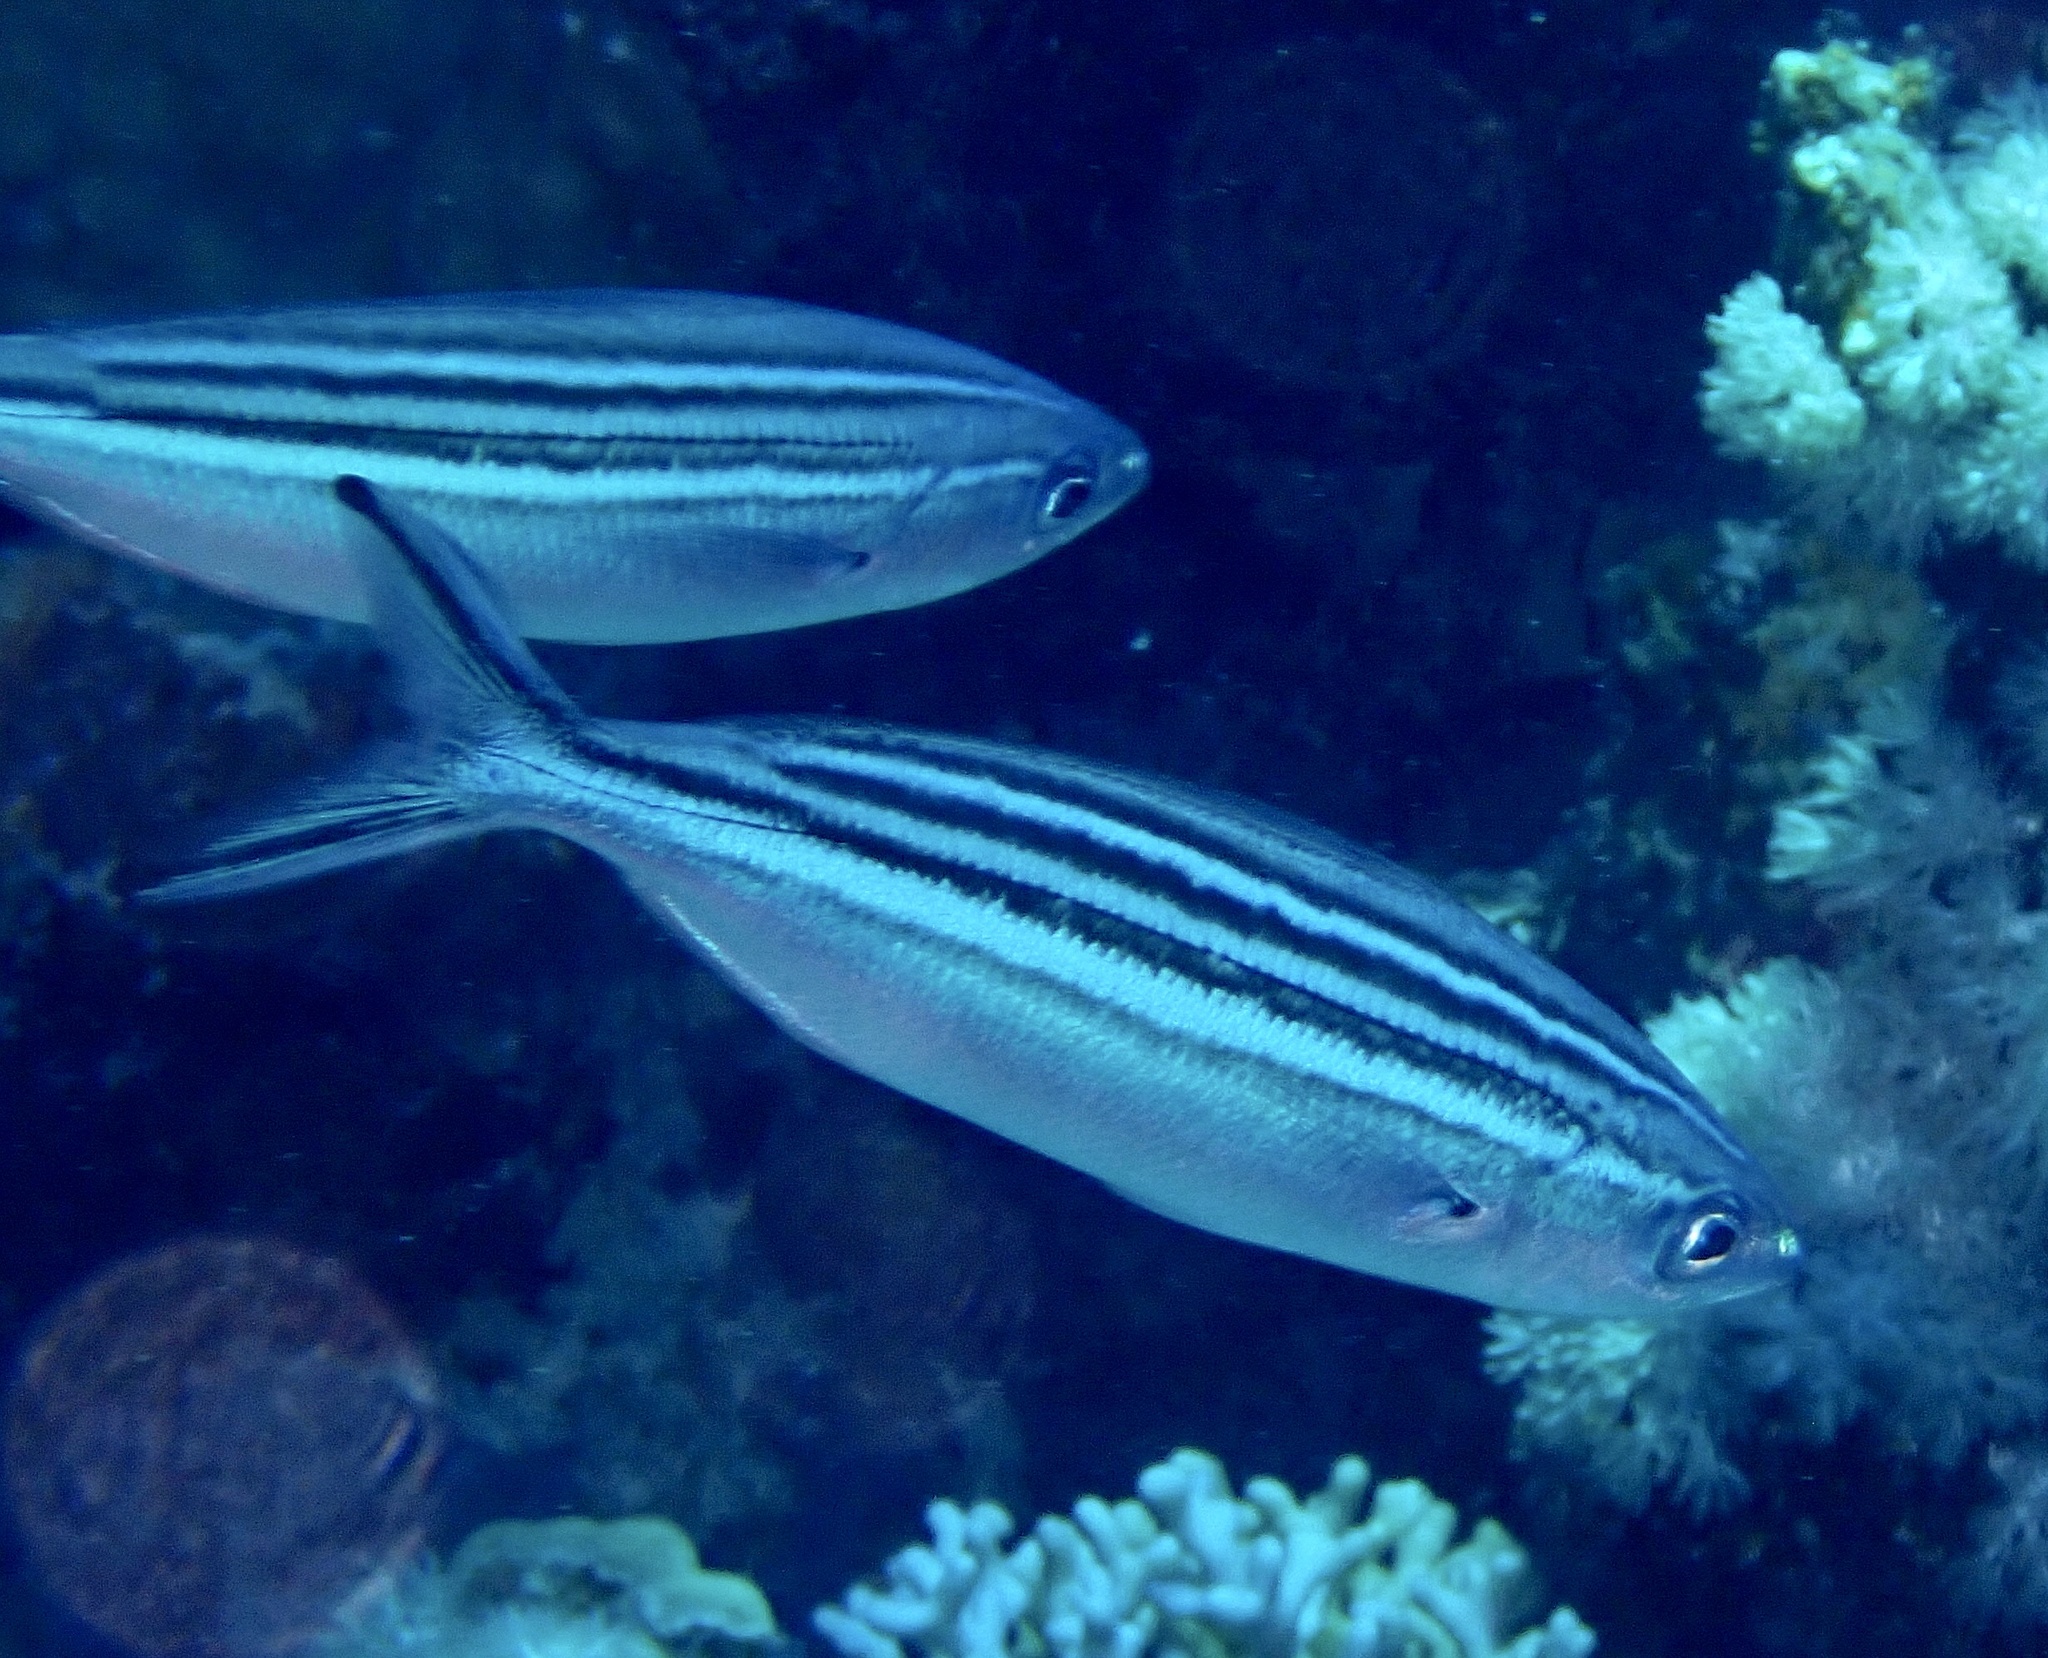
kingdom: Animalia
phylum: Chordata
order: Perciformes
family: Caesionidae
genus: Caesio
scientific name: Caesio striata
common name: Striated fusilier
